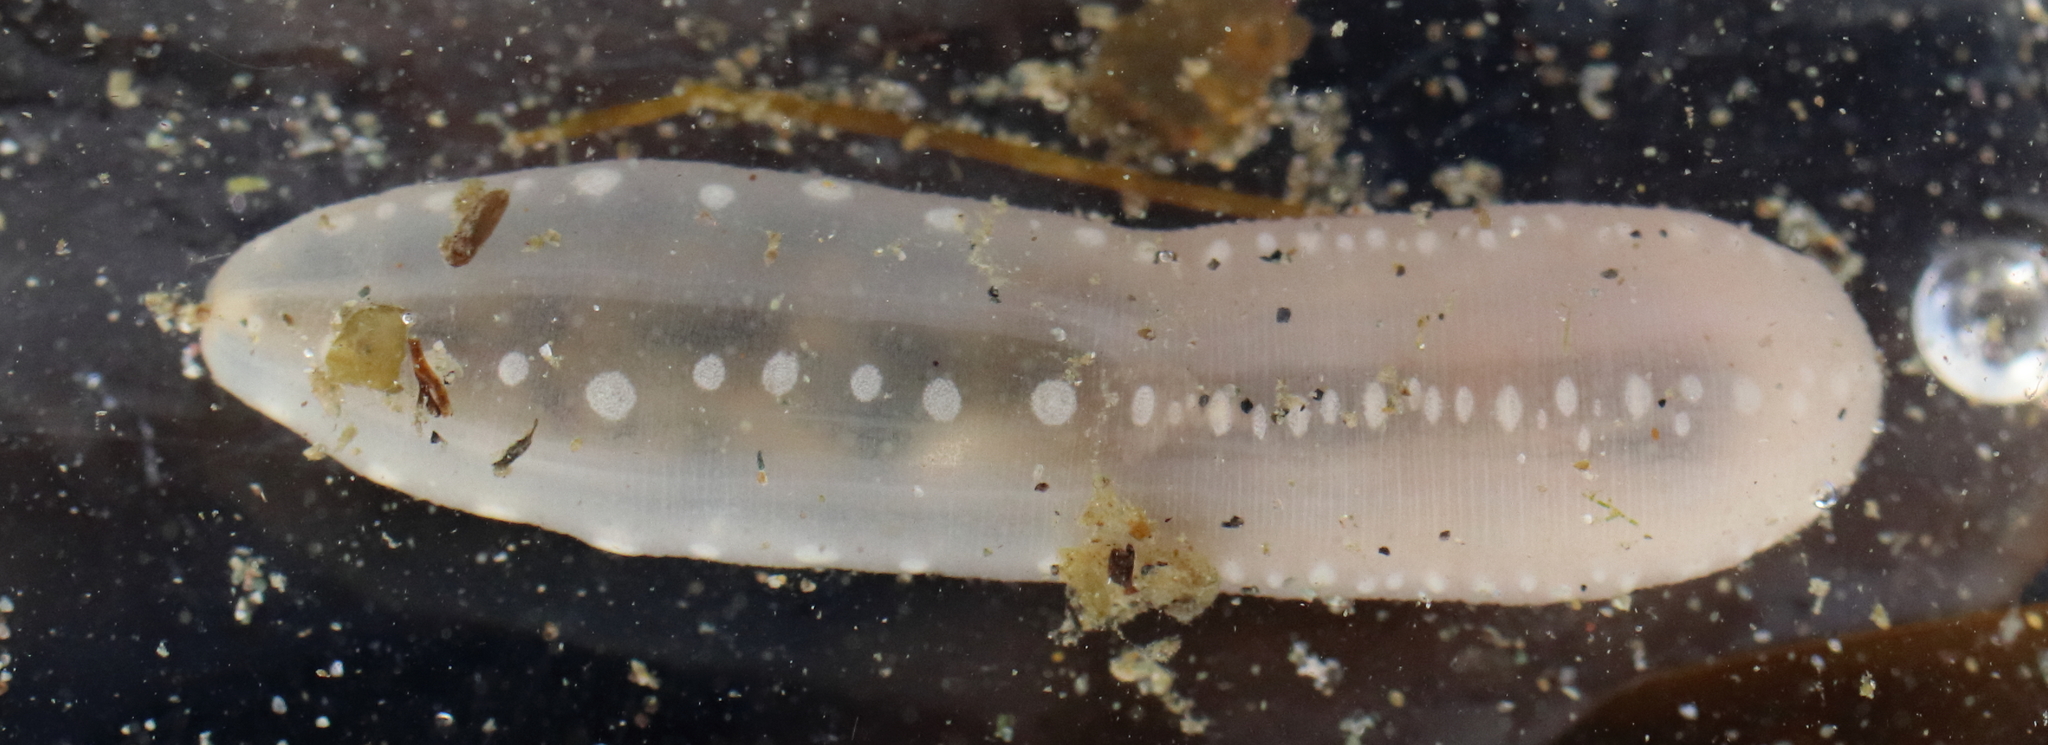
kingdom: Animalia
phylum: Echinodermata
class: Holothuroidea
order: Apodida
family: Chiridotidae
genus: Chiridota
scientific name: Chiridota discolor
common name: Jellybean footless sea cucumber
